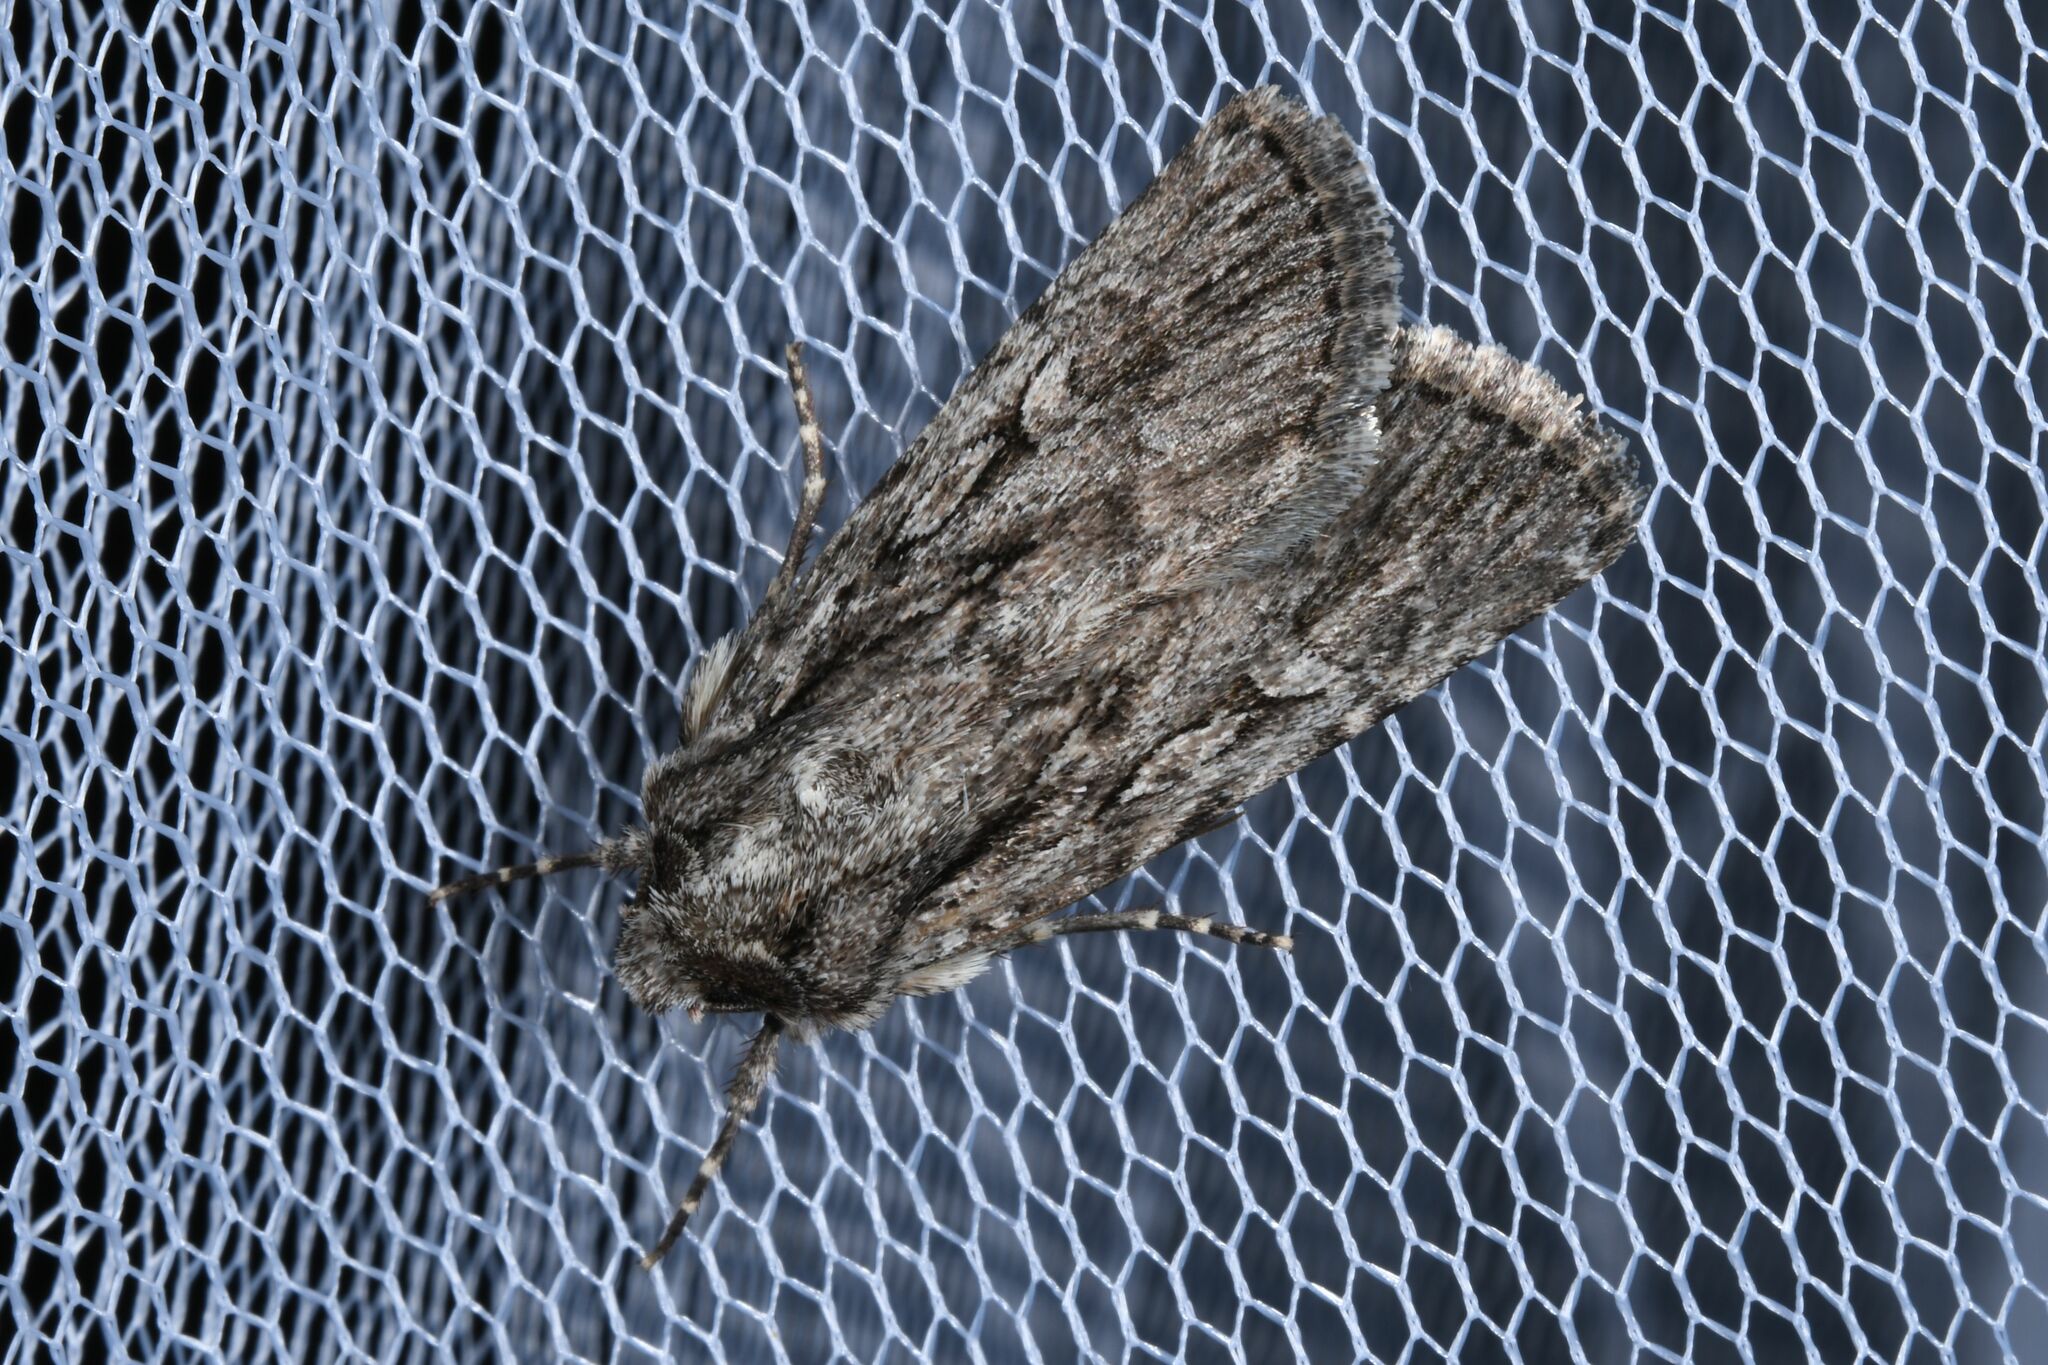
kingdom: Animalia
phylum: Arthropoda
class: Insecta
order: Lepidoptera
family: Noctuidae
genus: Yigoga
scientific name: Yigoga signifera
